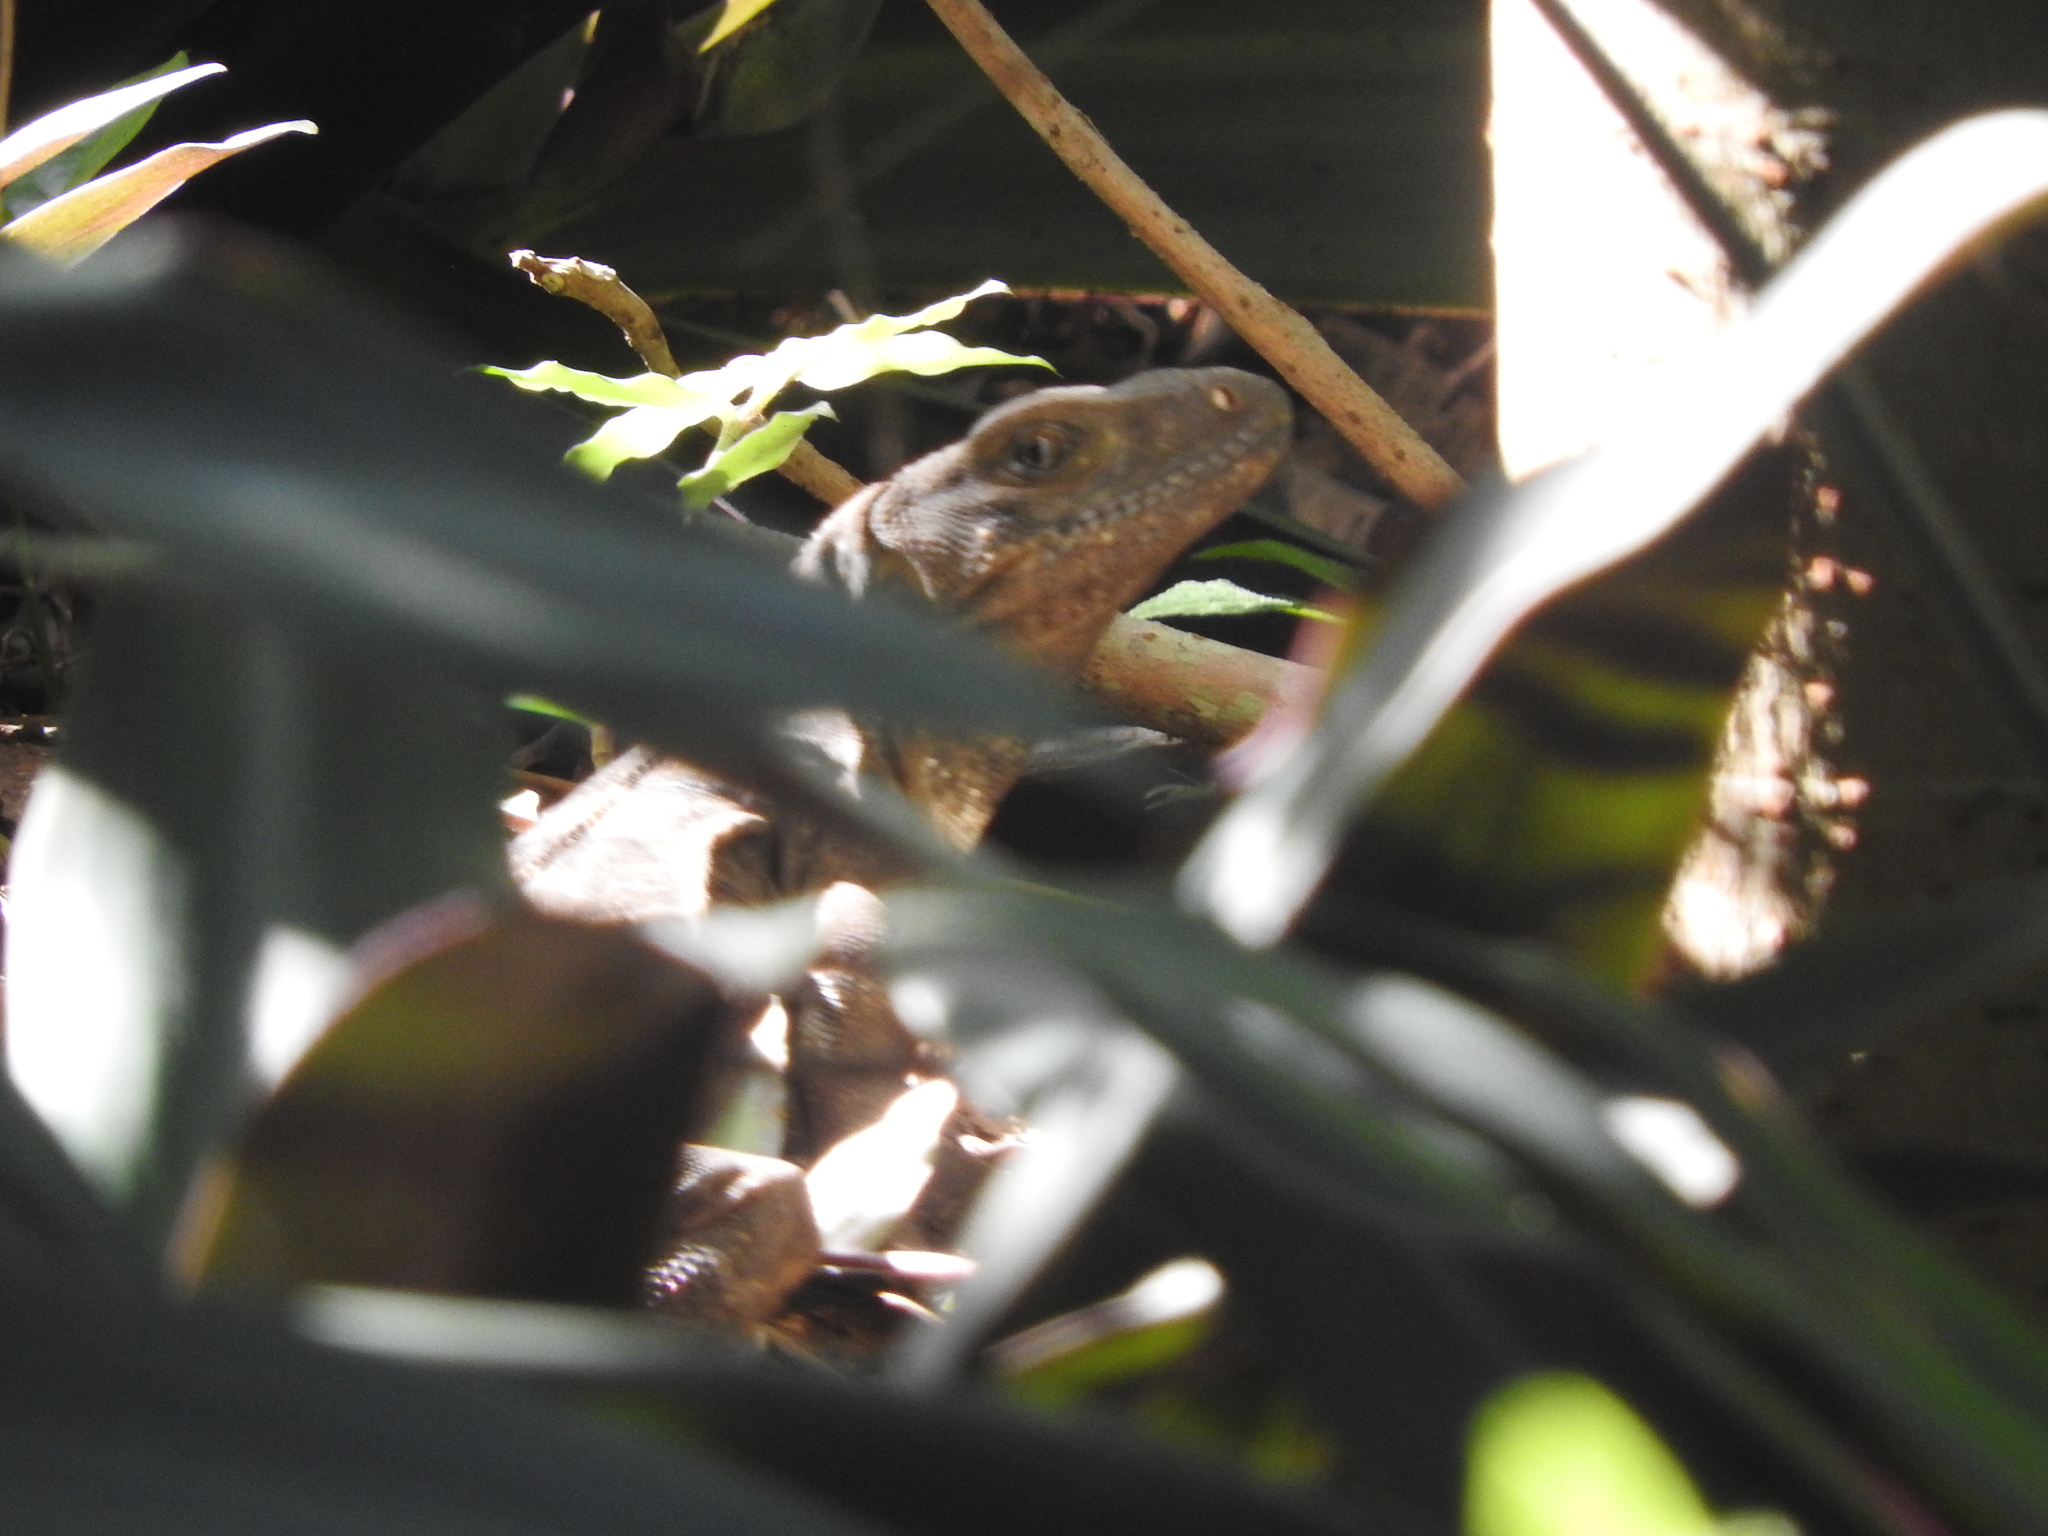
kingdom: Animalia
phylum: Chordata
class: Squamata
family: Iguanidae
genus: Ctenosaura
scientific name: Ctenosaura similis
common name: Black spiny-tailed iguana
